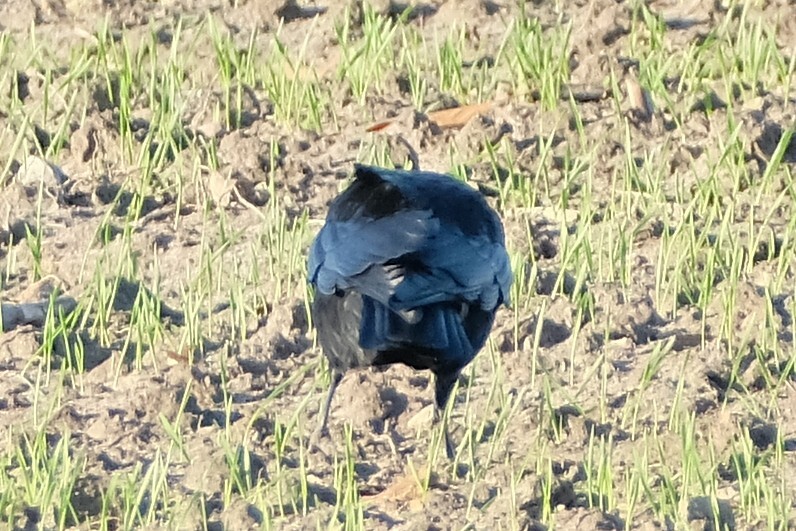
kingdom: Animalia
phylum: Chordata
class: Aves
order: Passeriformes
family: Corvidae
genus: Corvus
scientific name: Corvus corone
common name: Carrion crow
